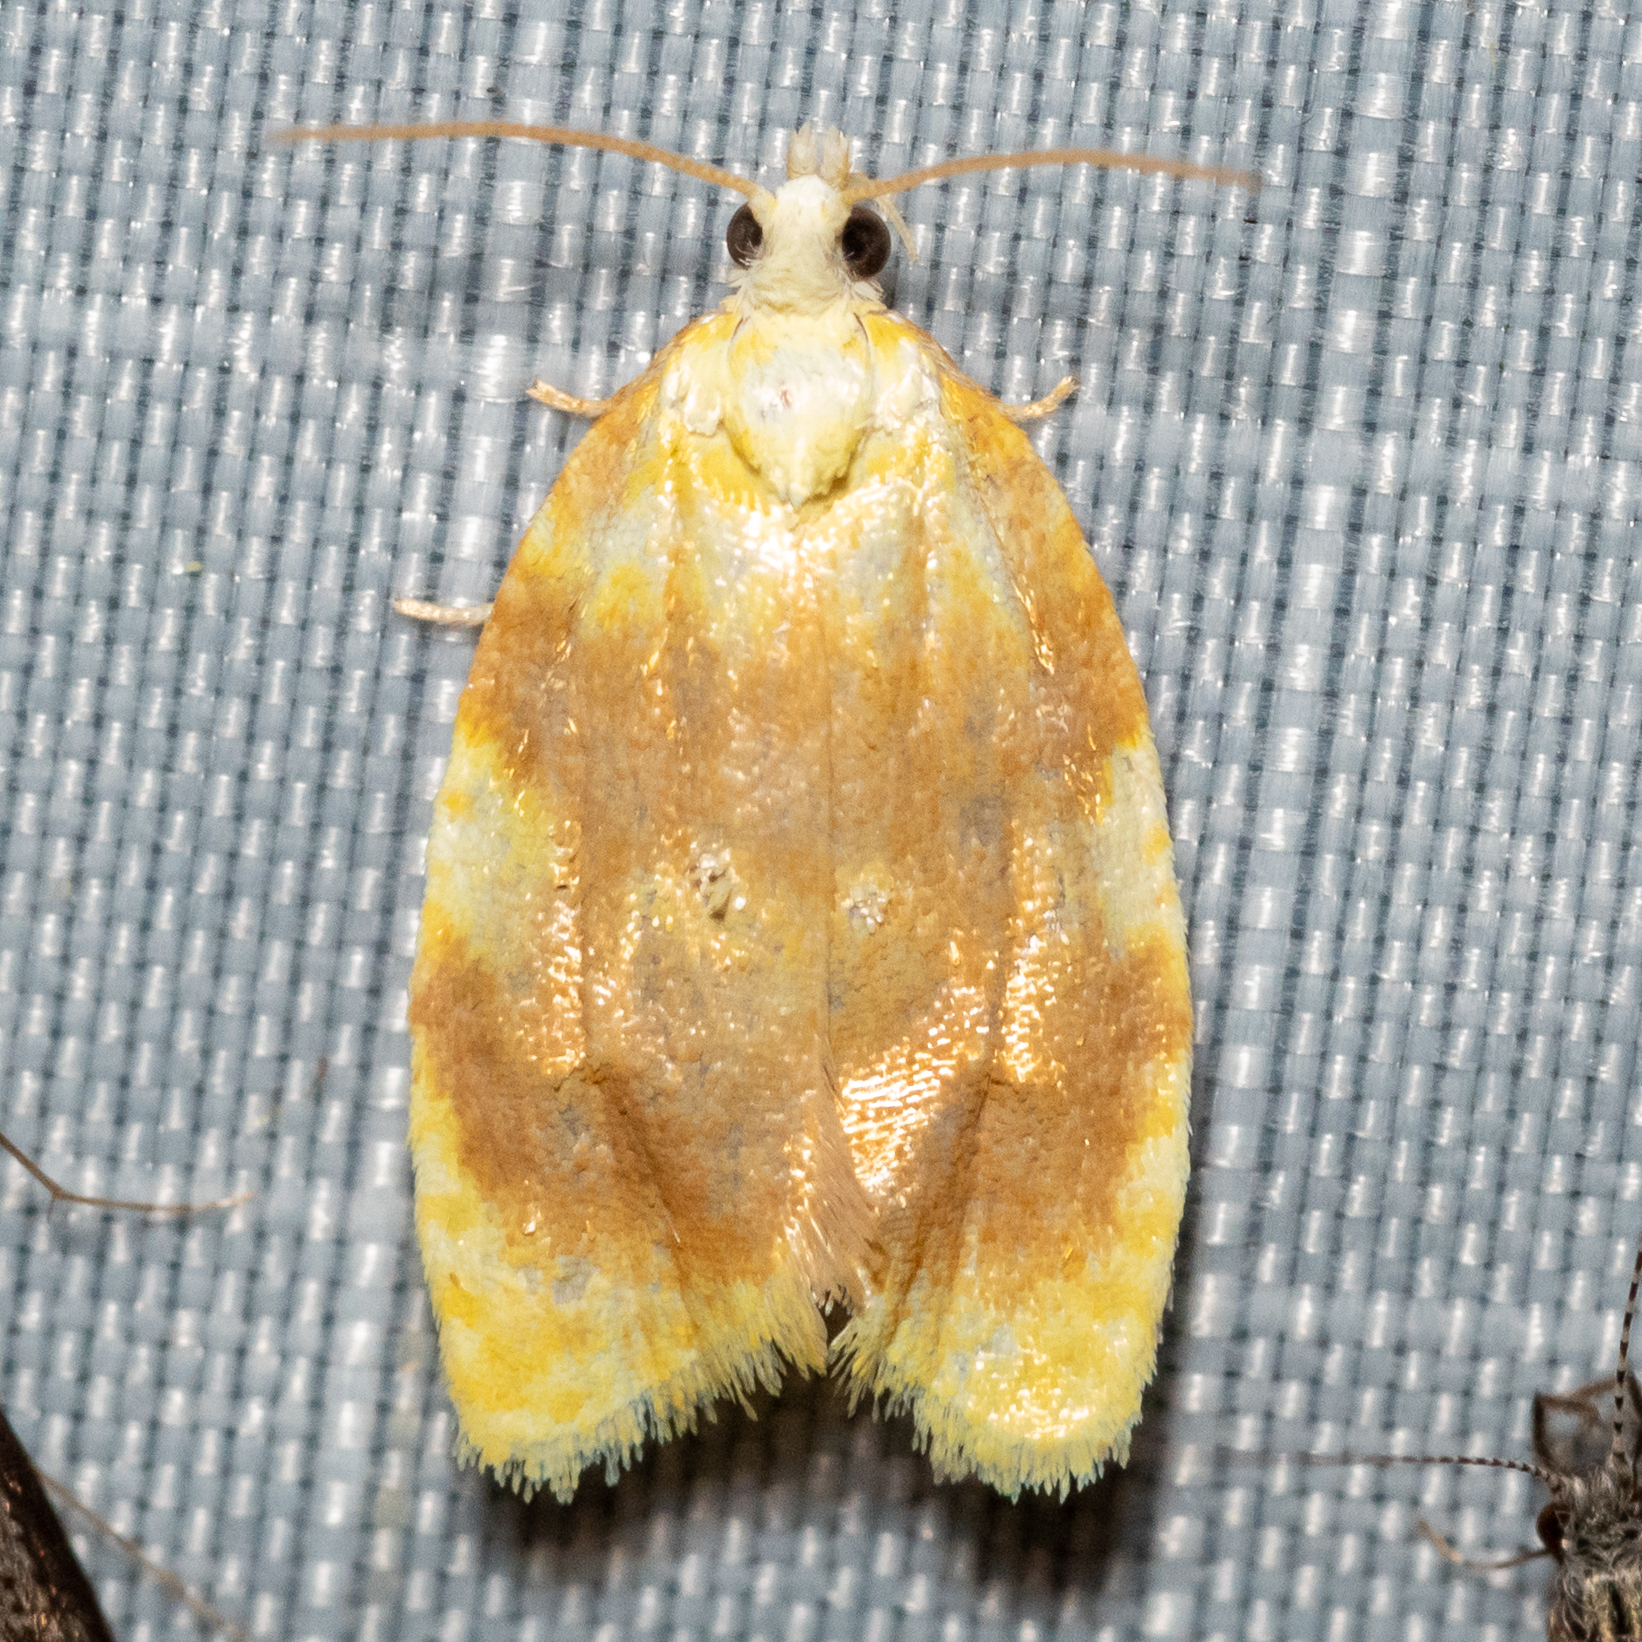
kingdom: Animalia
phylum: Arthropoda
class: Insecta
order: Lepidoptera
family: Tortricidae
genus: Acleris
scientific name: Acleris semipurpurana
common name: Oak leaftier moth
